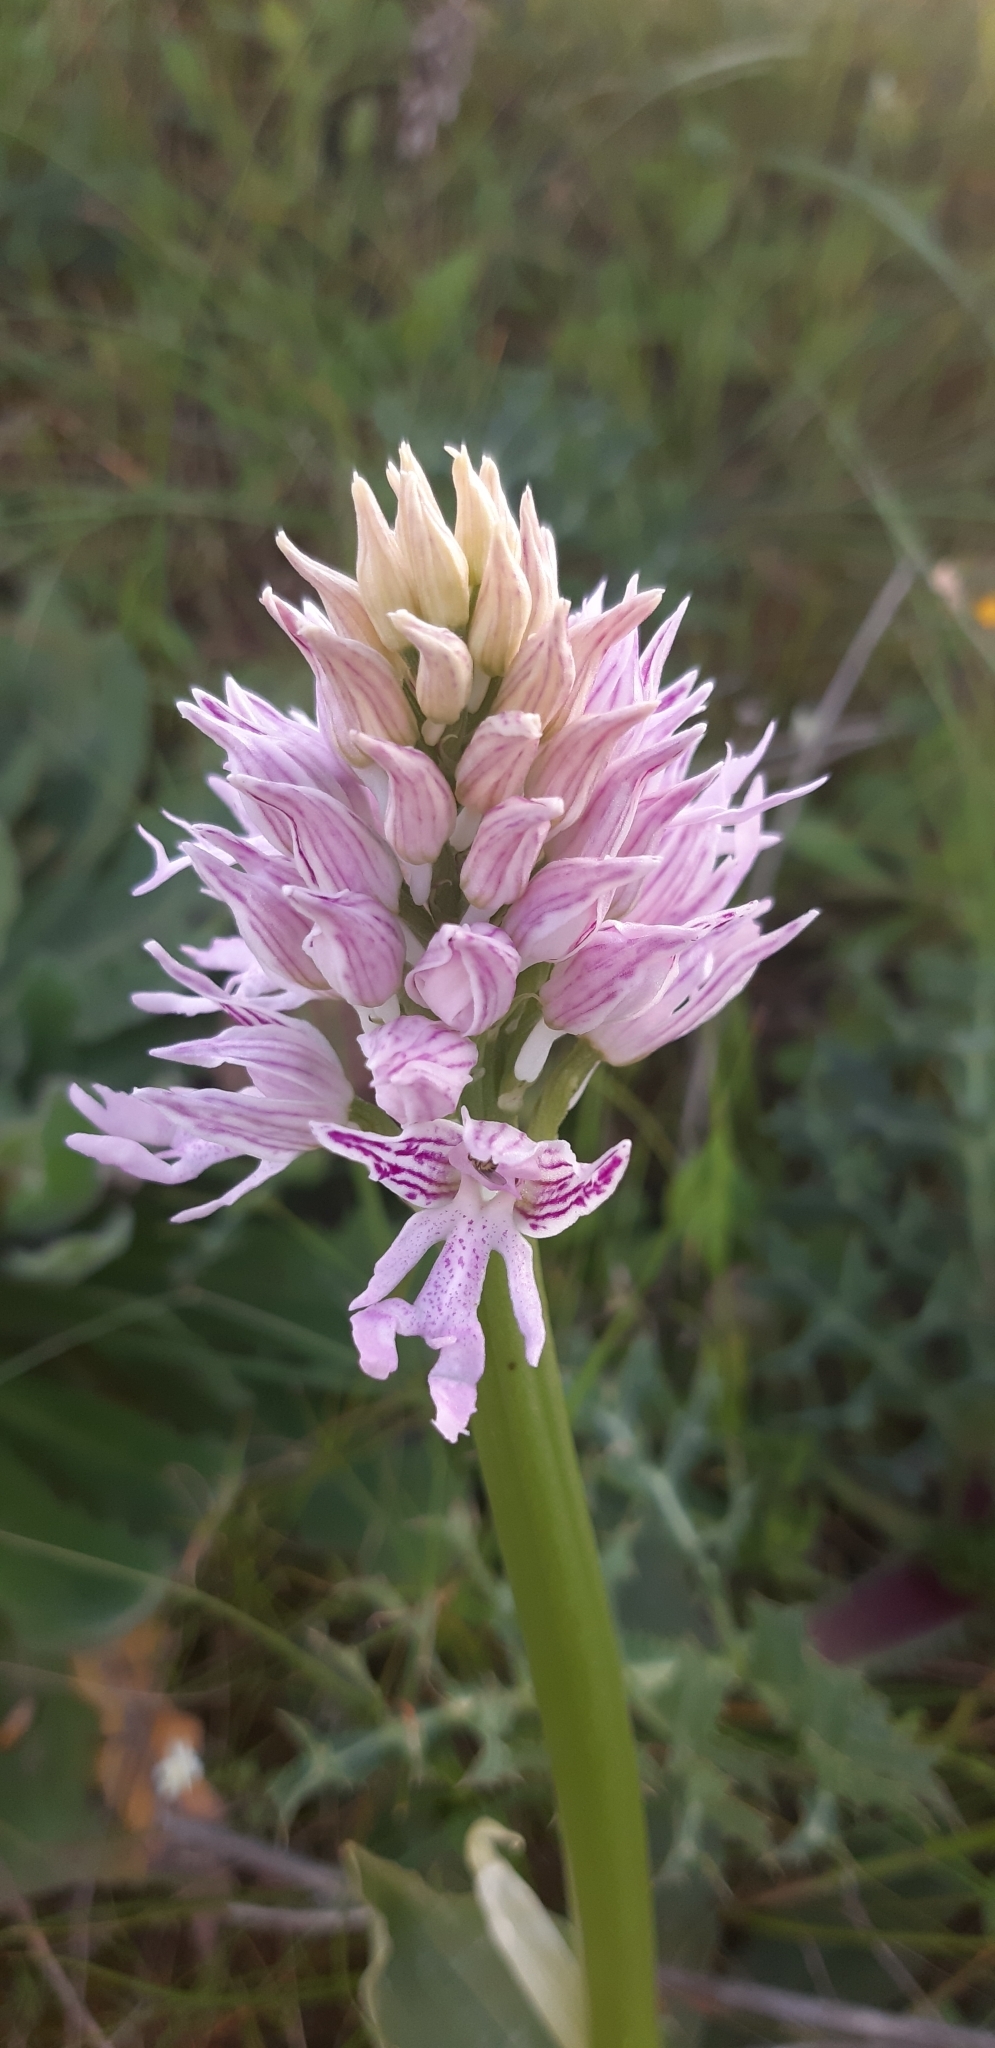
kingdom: Plantae
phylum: Tracheophyta
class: Liliopsida
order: Asparagales
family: Orchidaceae
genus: Orchis
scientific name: Orchis italica
